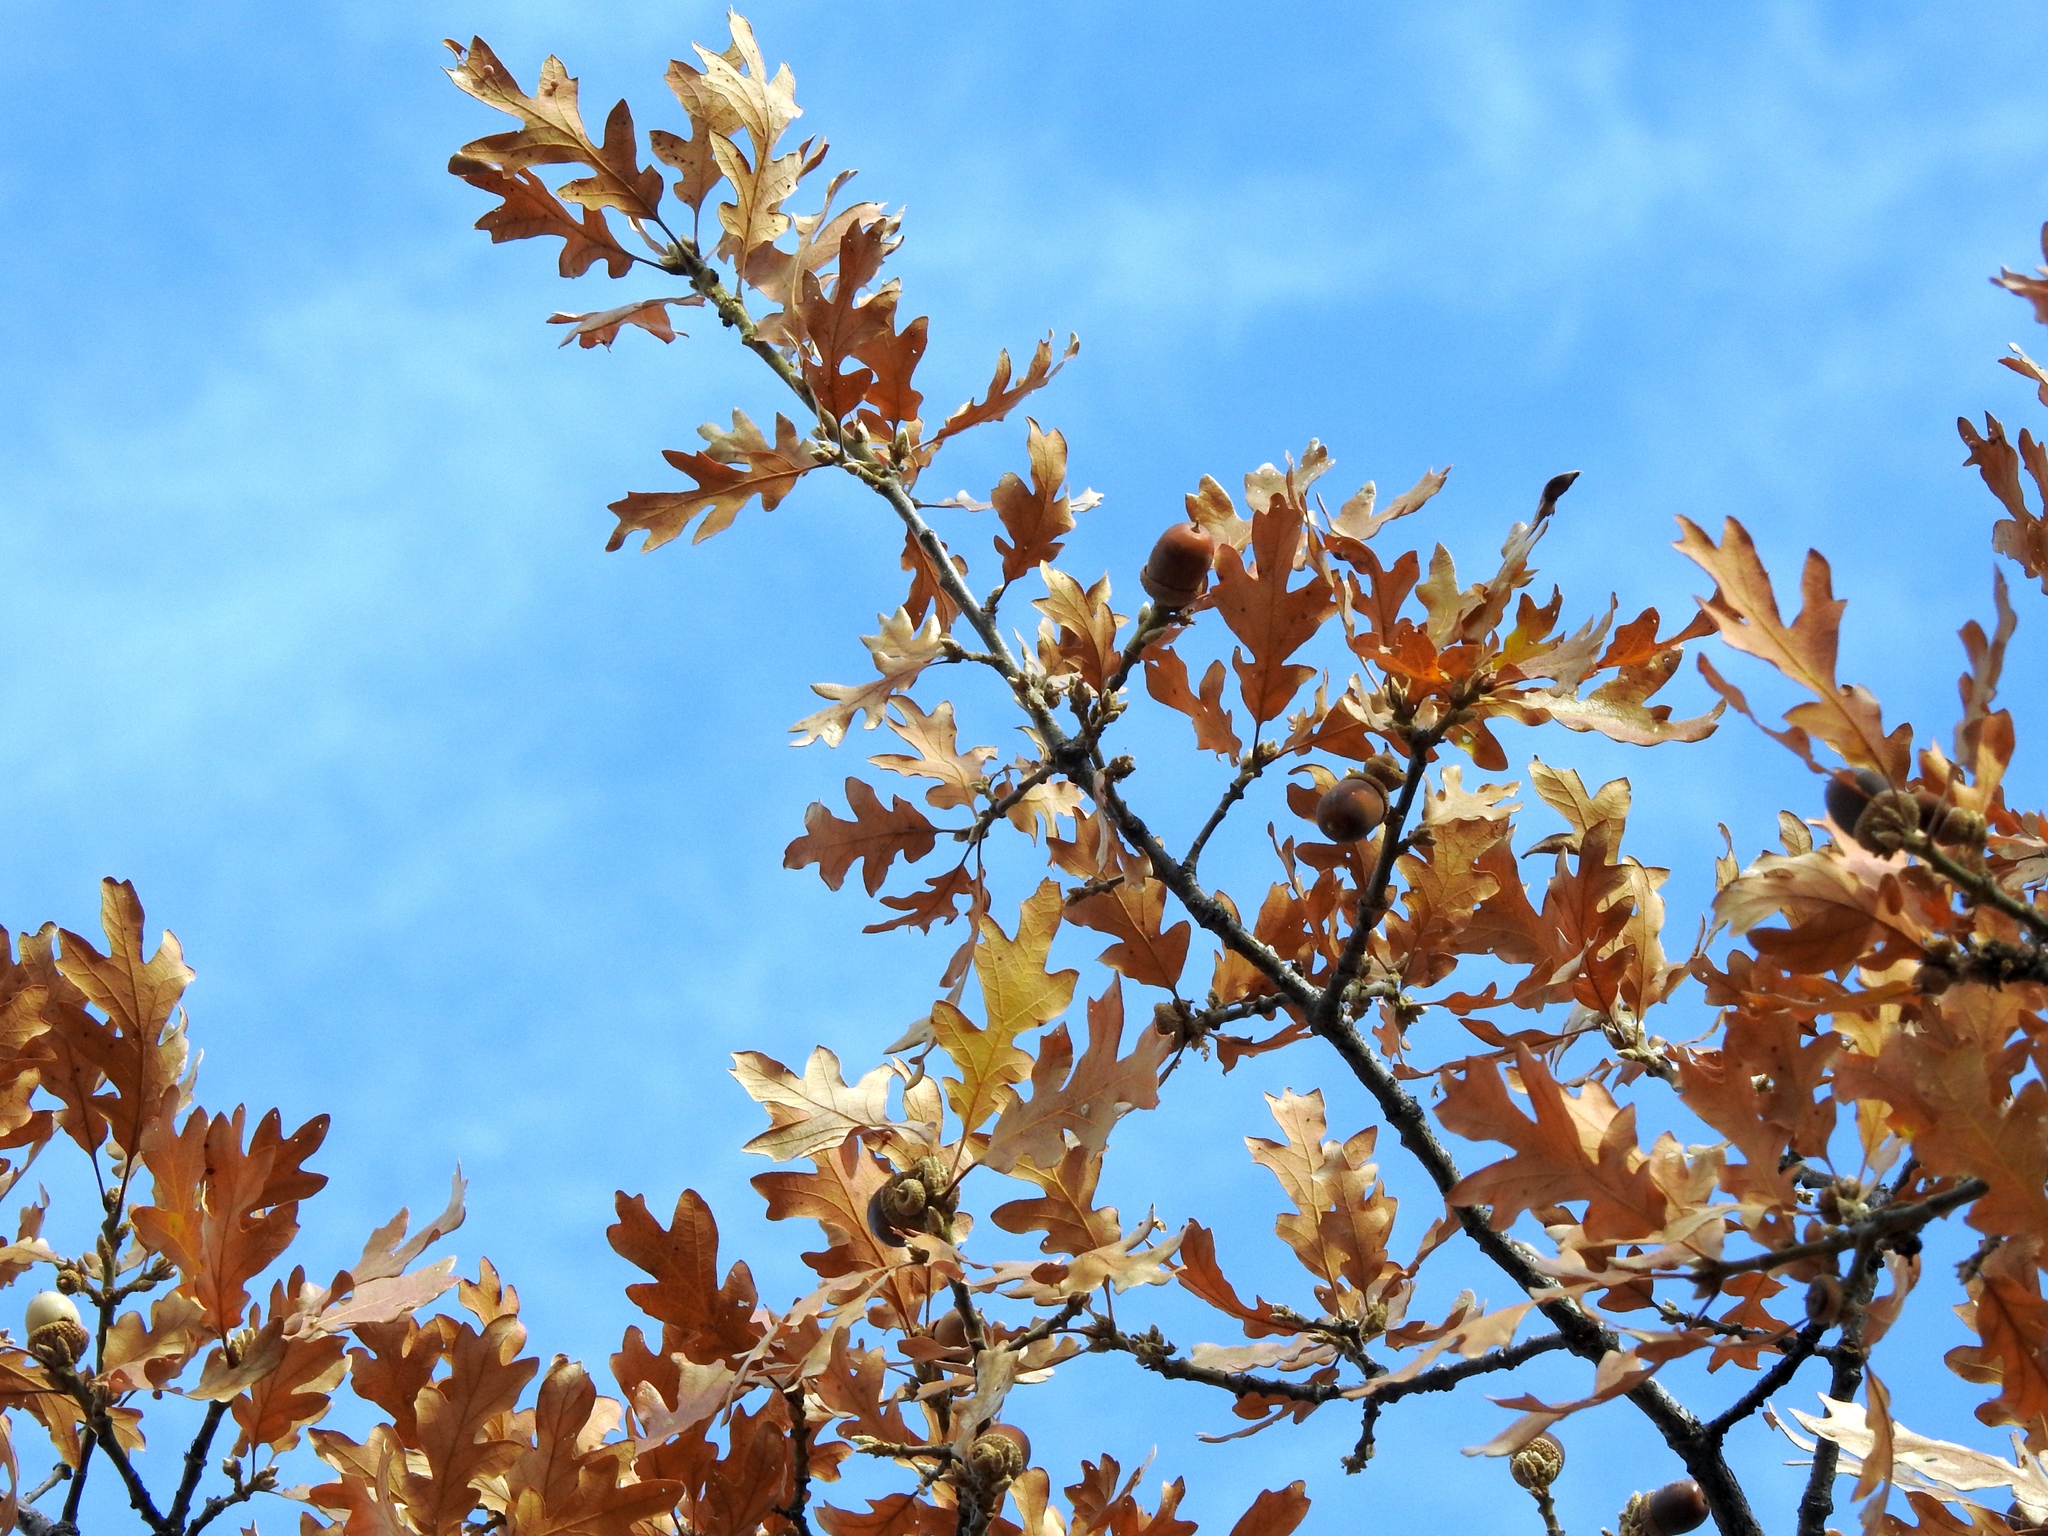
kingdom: Plantae
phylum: Tracheophyta
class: Magnoliopsida
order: Fagales
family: Fagaceae
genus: Quercus
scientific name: Quercus garryana
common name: Garry oak
